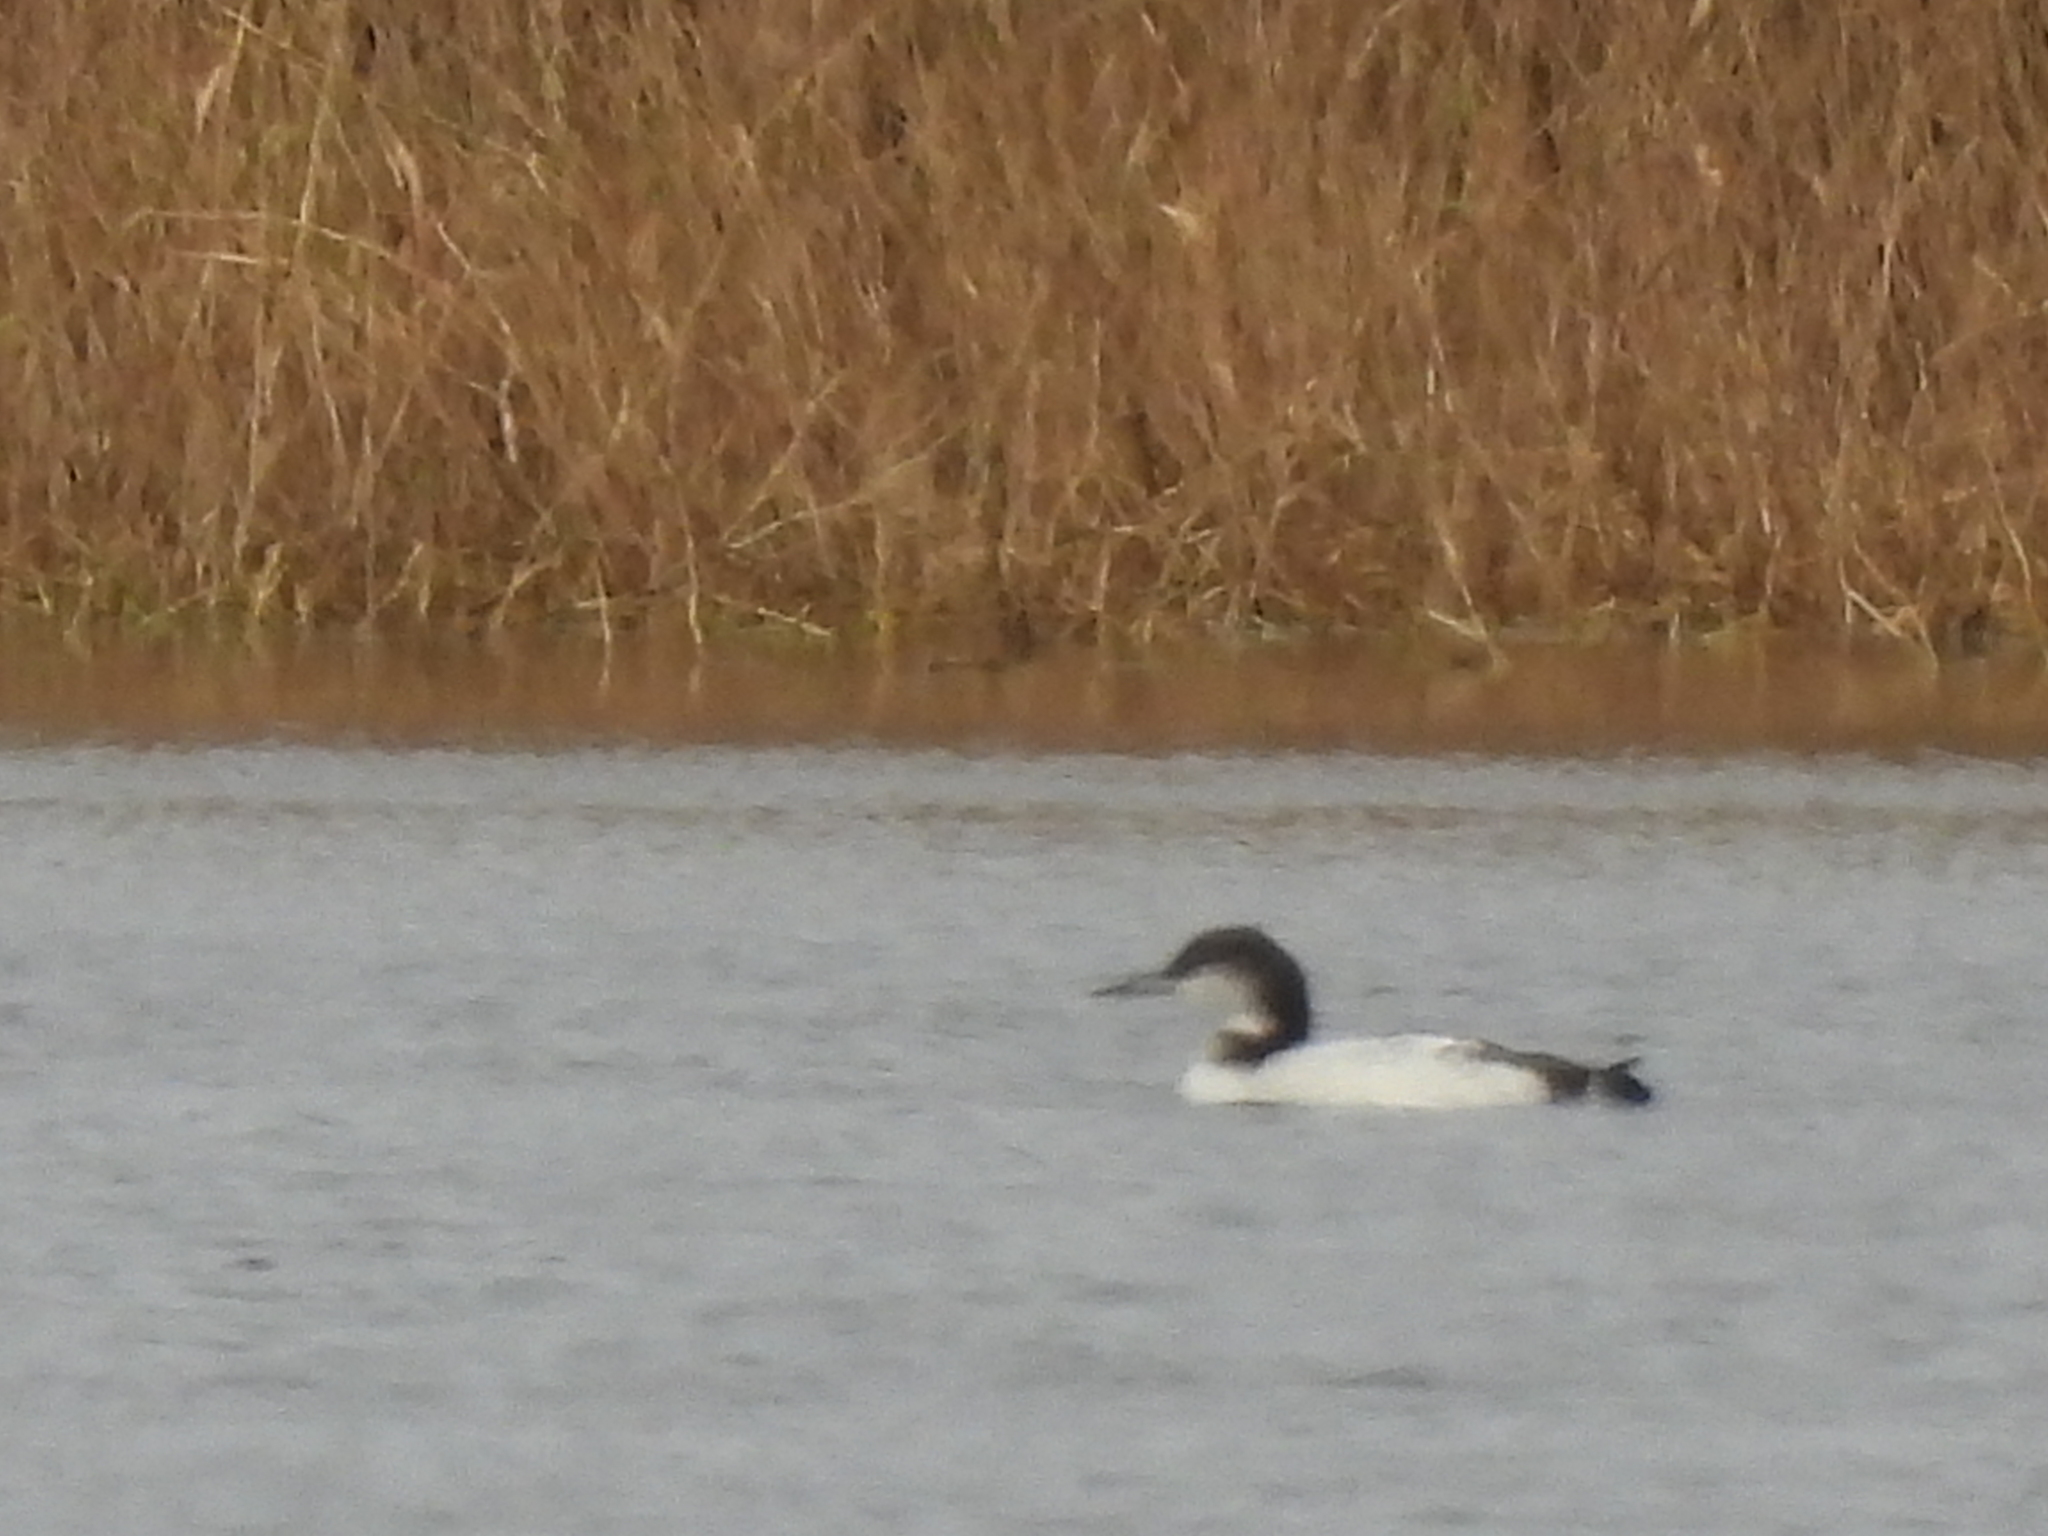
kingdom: Animalia
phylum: Chordata
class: Aves
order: Gaviiformes
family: Gaviidae
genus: Gavia
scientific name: Gavia immer
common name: Common loon
